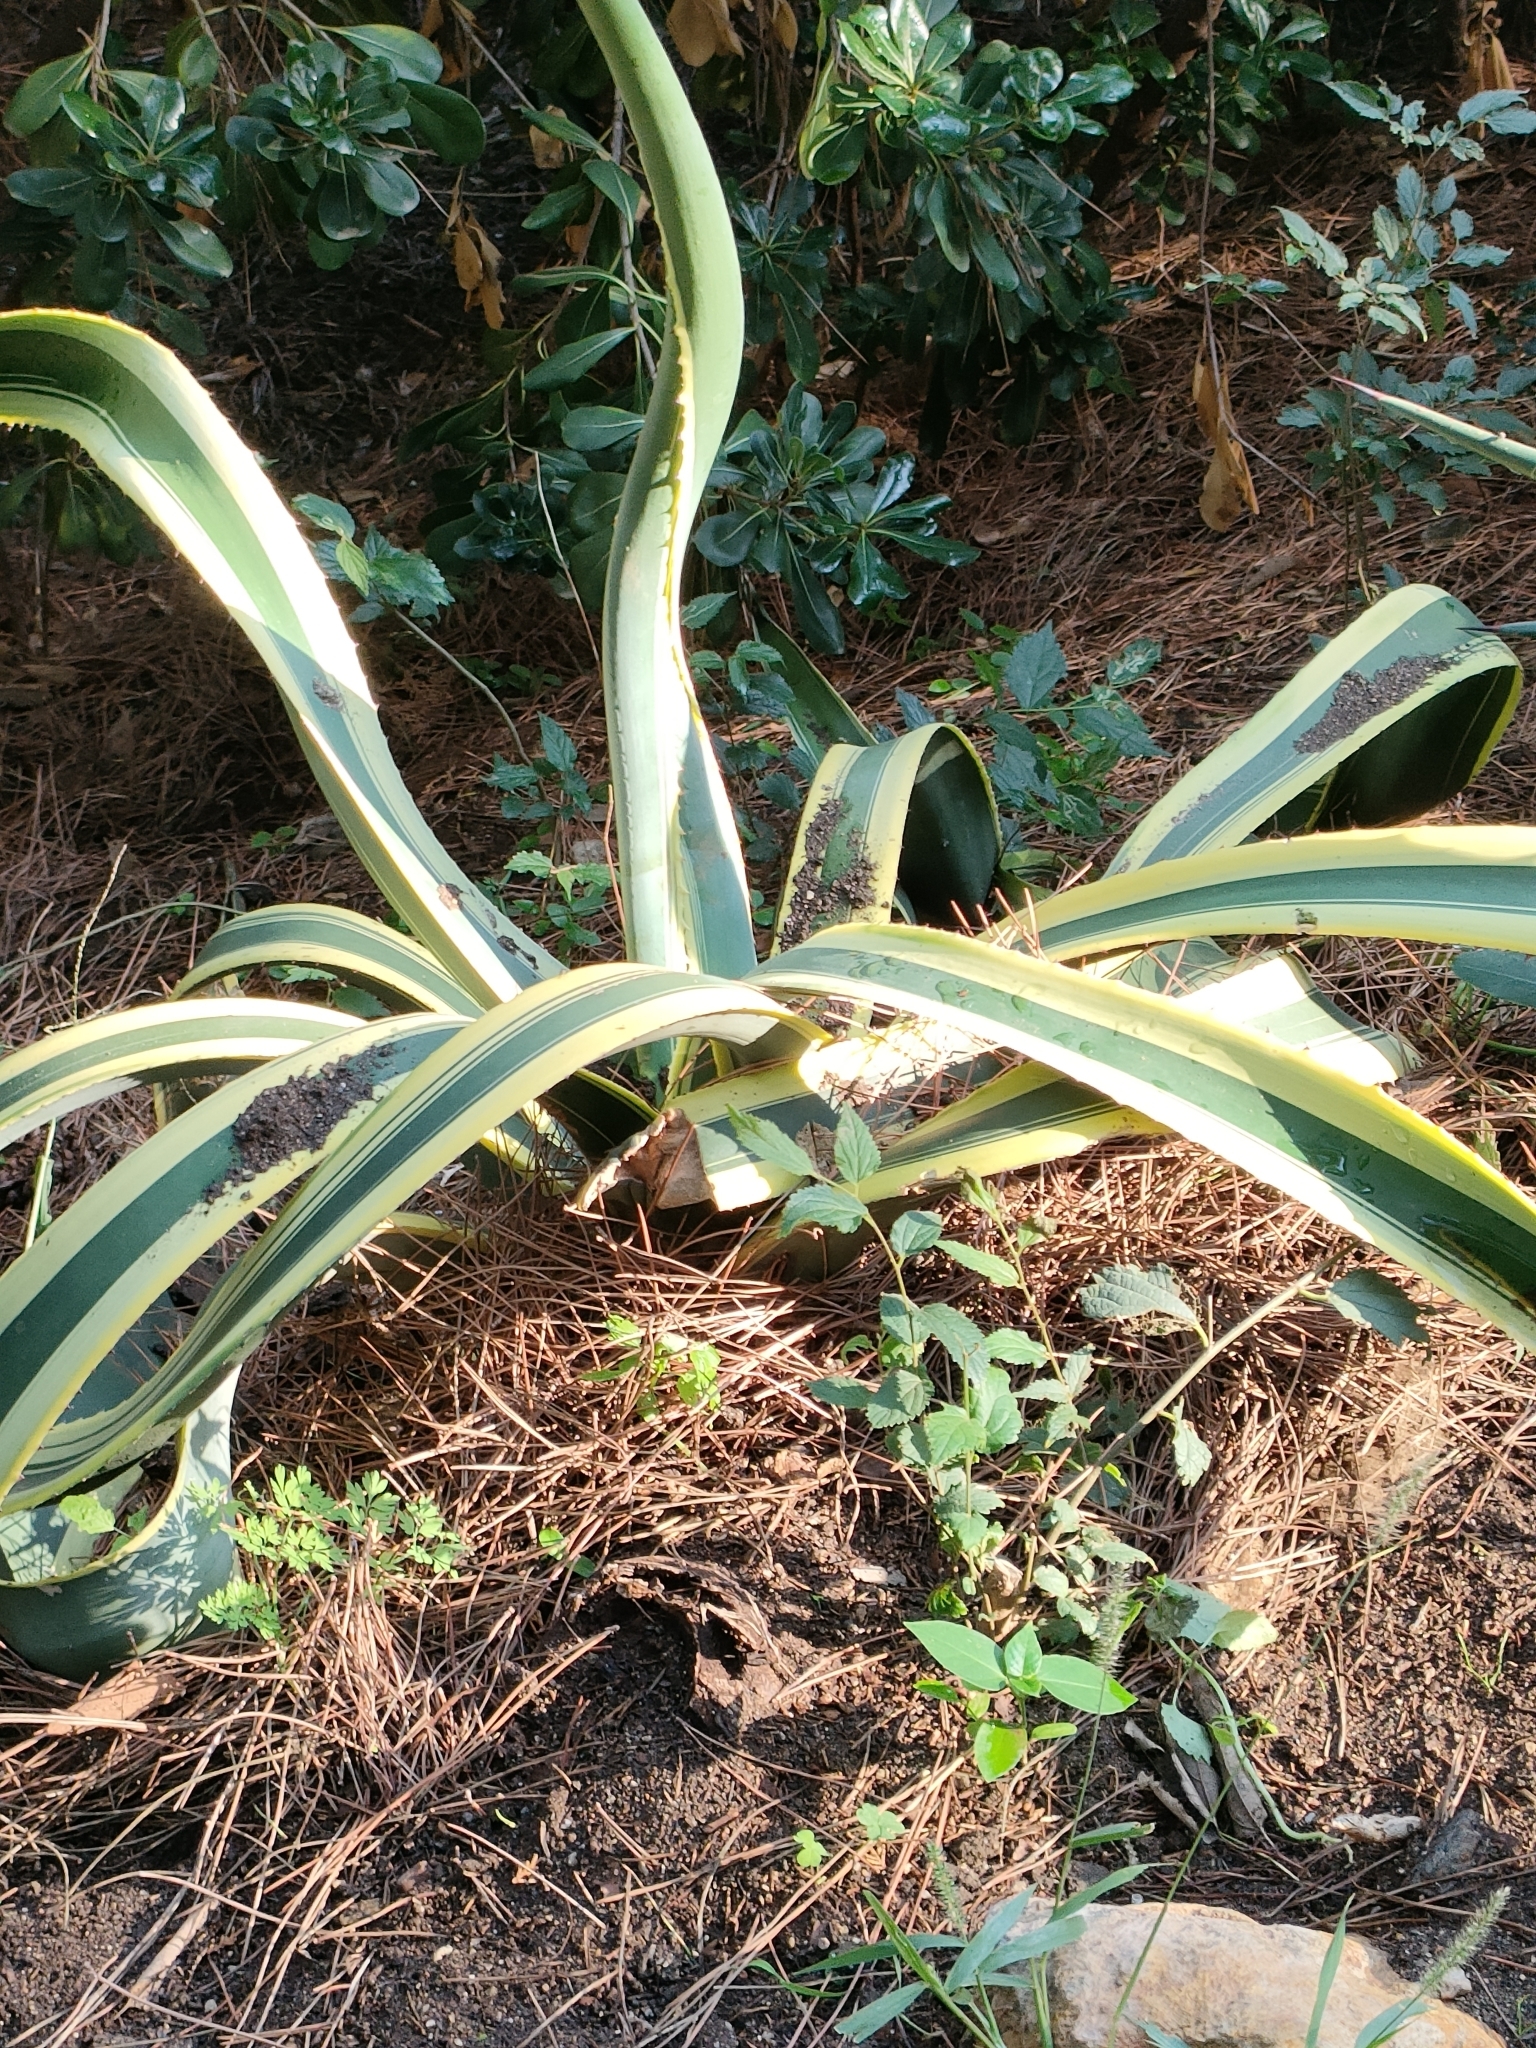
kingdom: Plantae
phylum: Tracheophyta
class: Liliopsida
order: Asparagales
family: Asparagaceae
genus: Agave
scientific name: Agave americana
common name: Centuryplant
